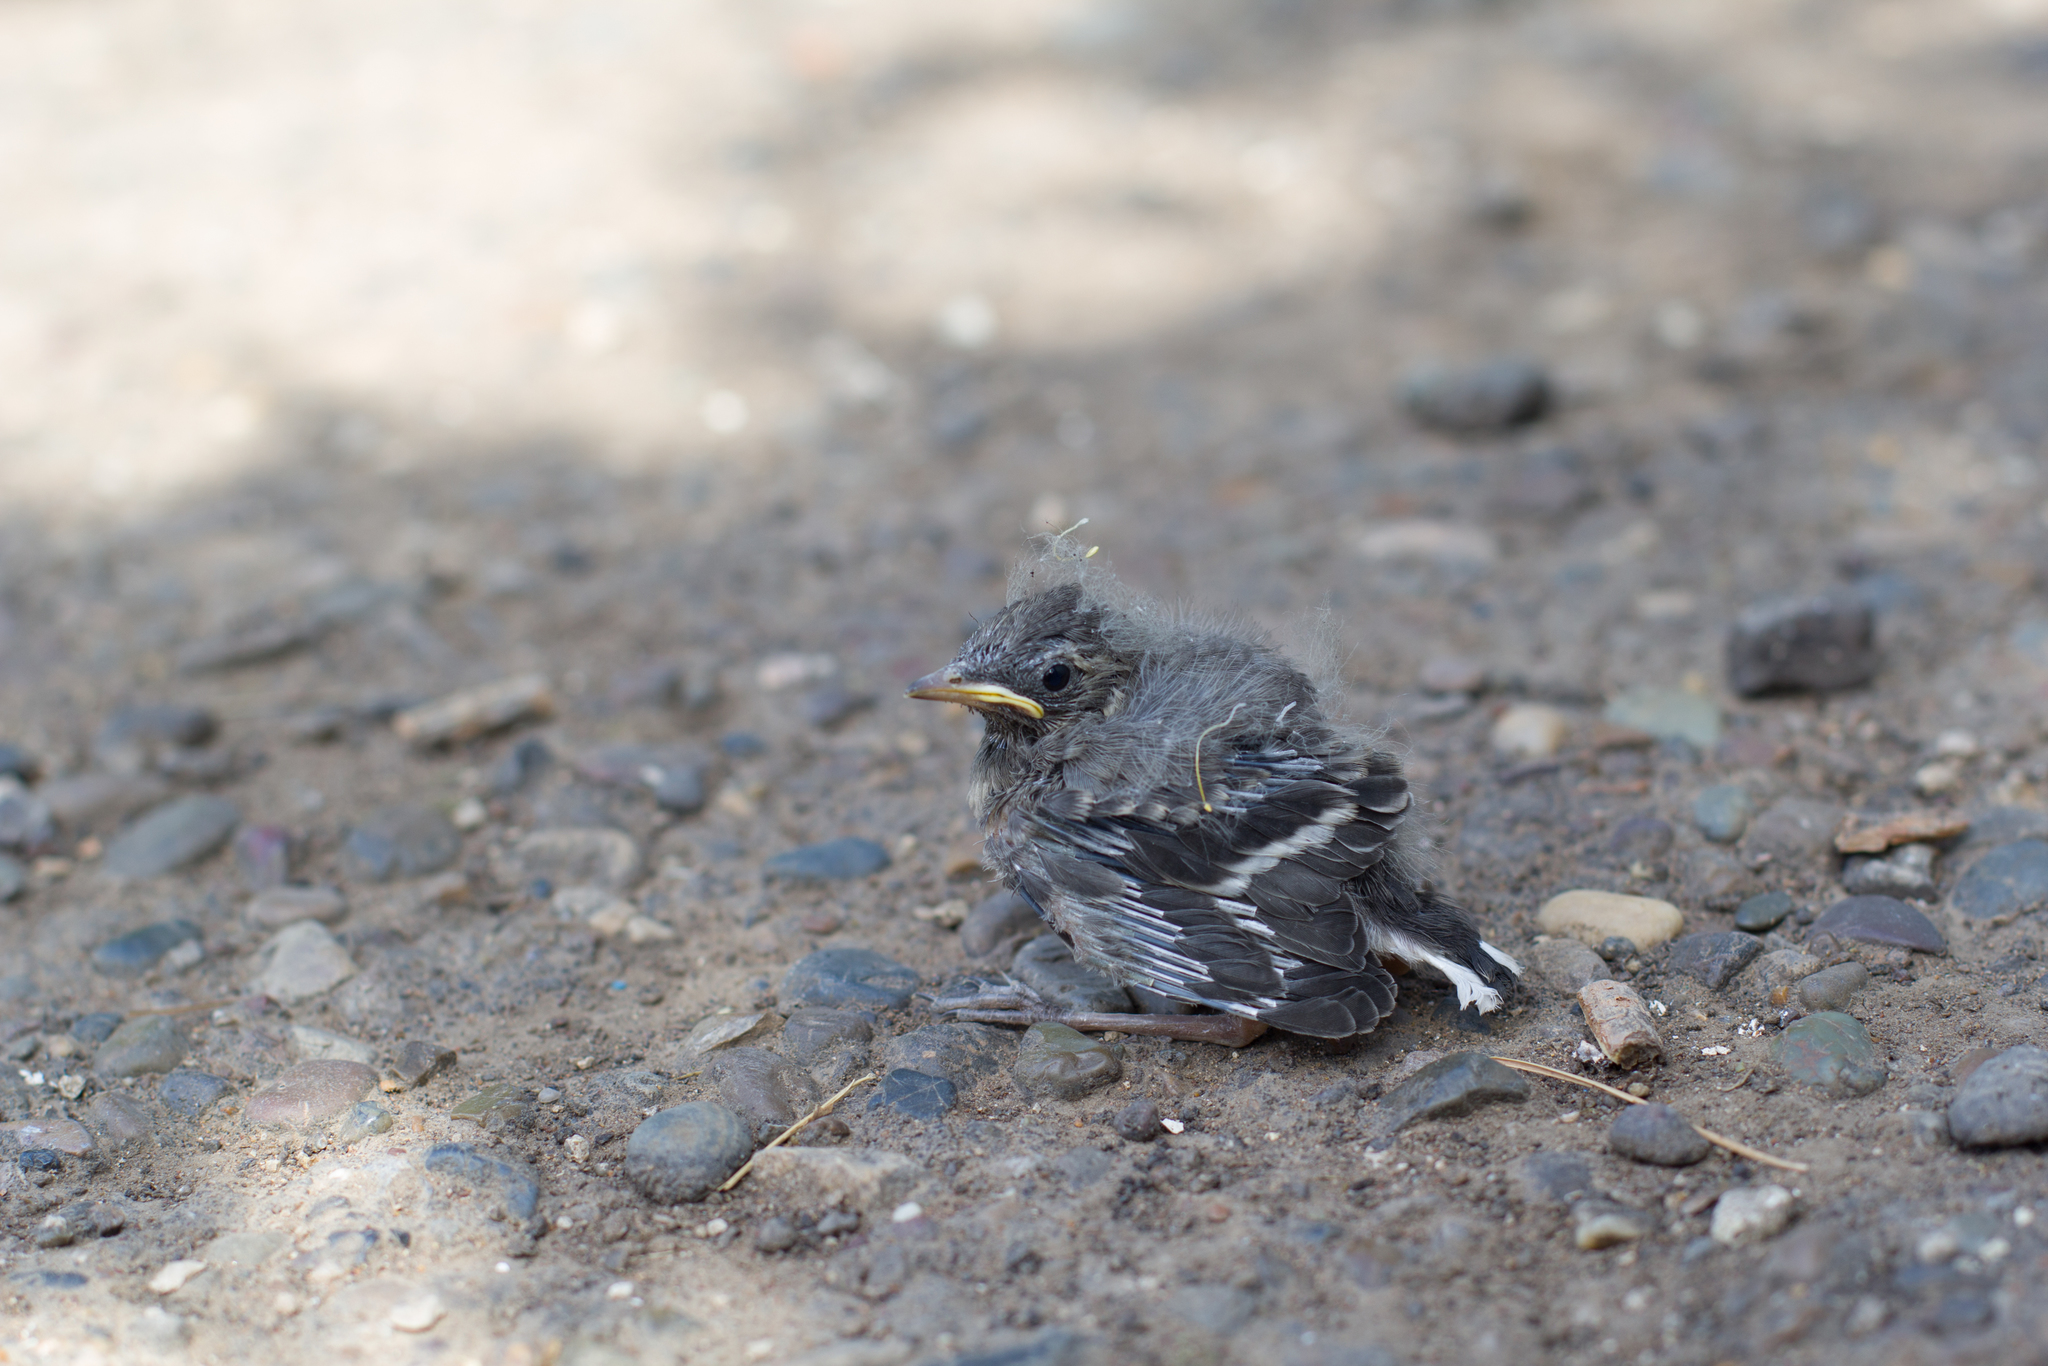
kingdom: Animalia
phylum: Chordata
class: Aves
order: Passeriformes
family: Motacillidae
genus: Motacilla
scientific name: Motacilla alba
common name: White wagtail
